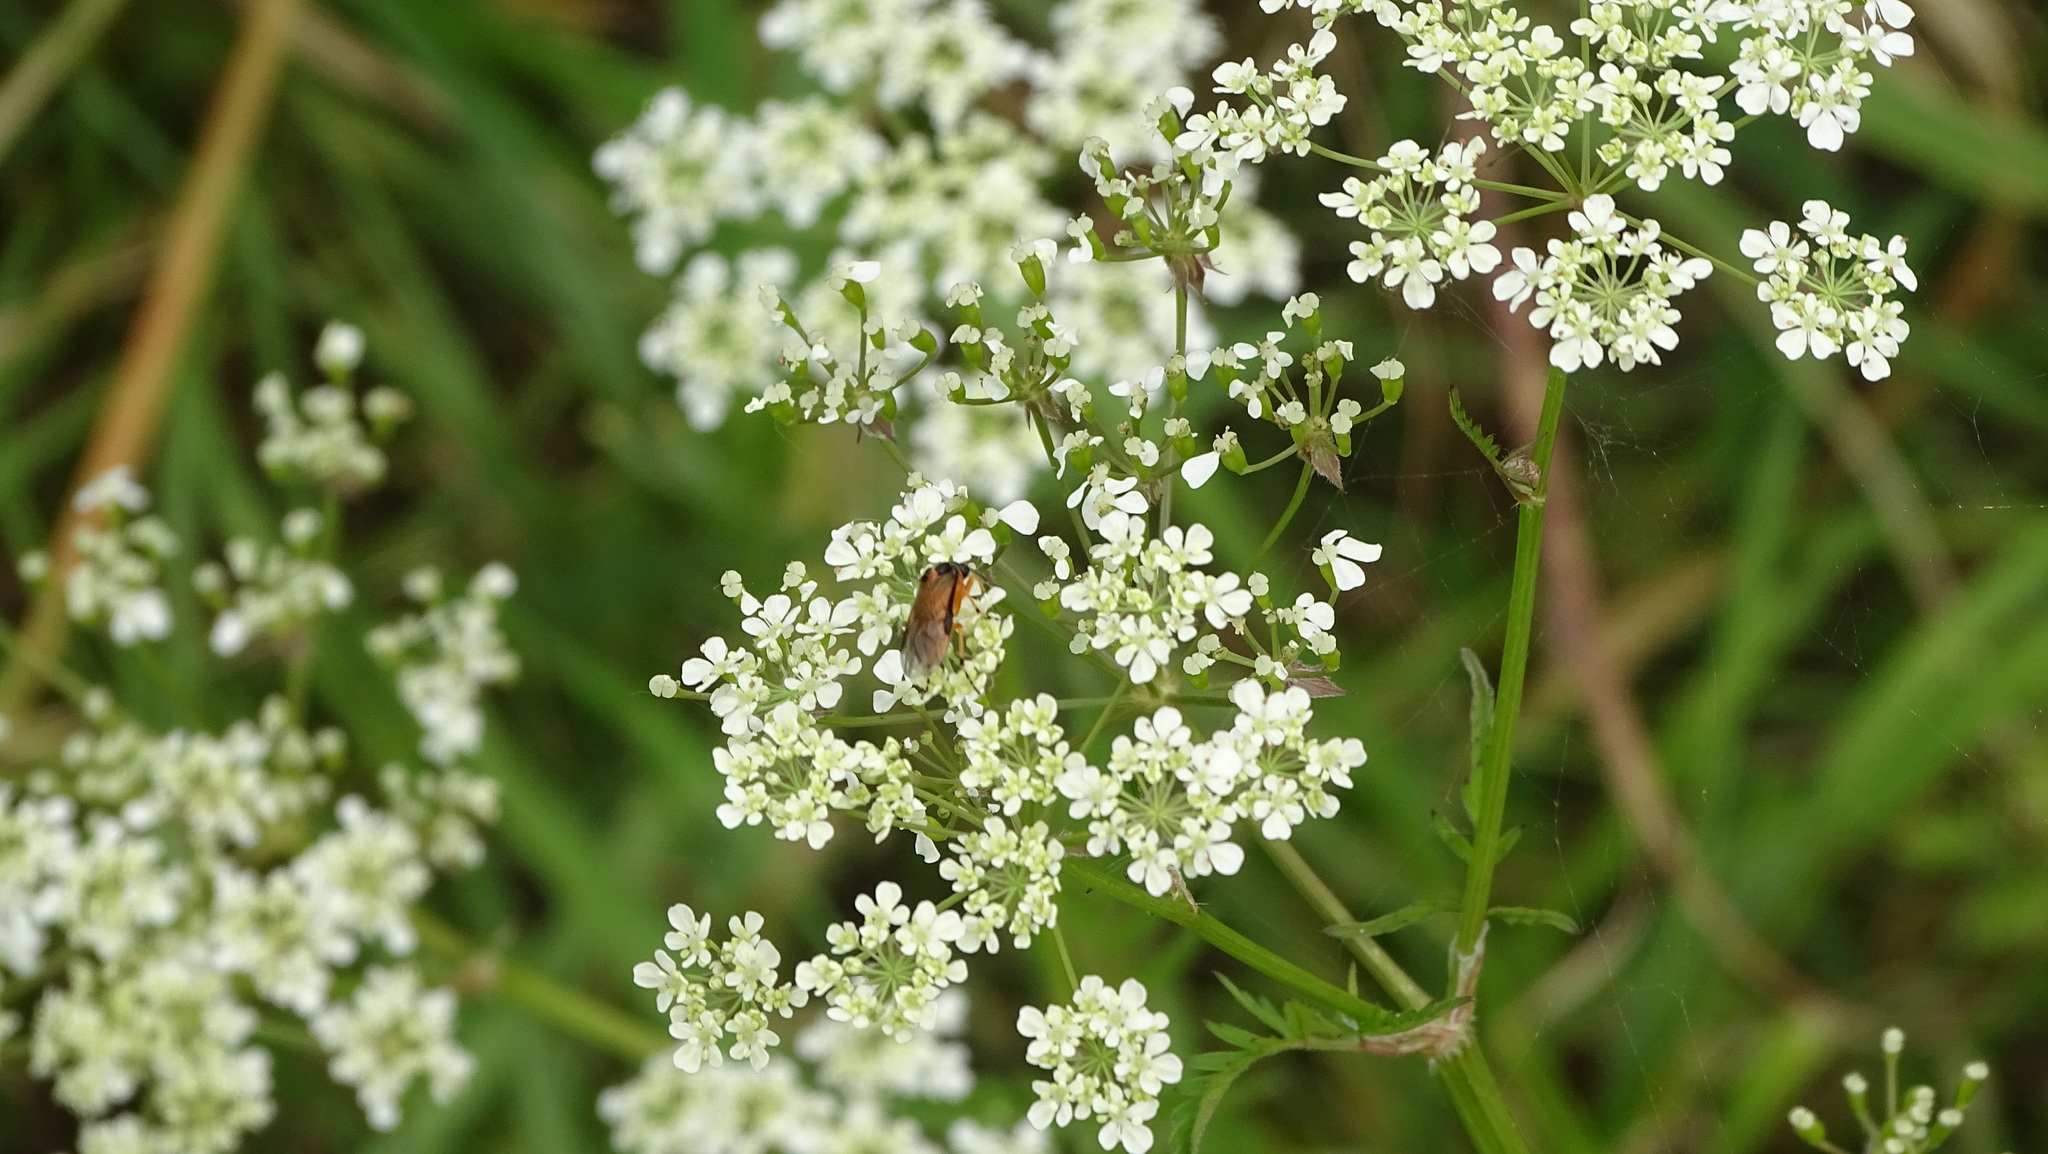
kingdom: Plantae
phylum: Tracheophyta
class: Magnoliopsida
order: Apiales
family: Apiaceae
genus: Anthriscus
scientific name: Anthriscus sylvestris
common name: Cow parsley
